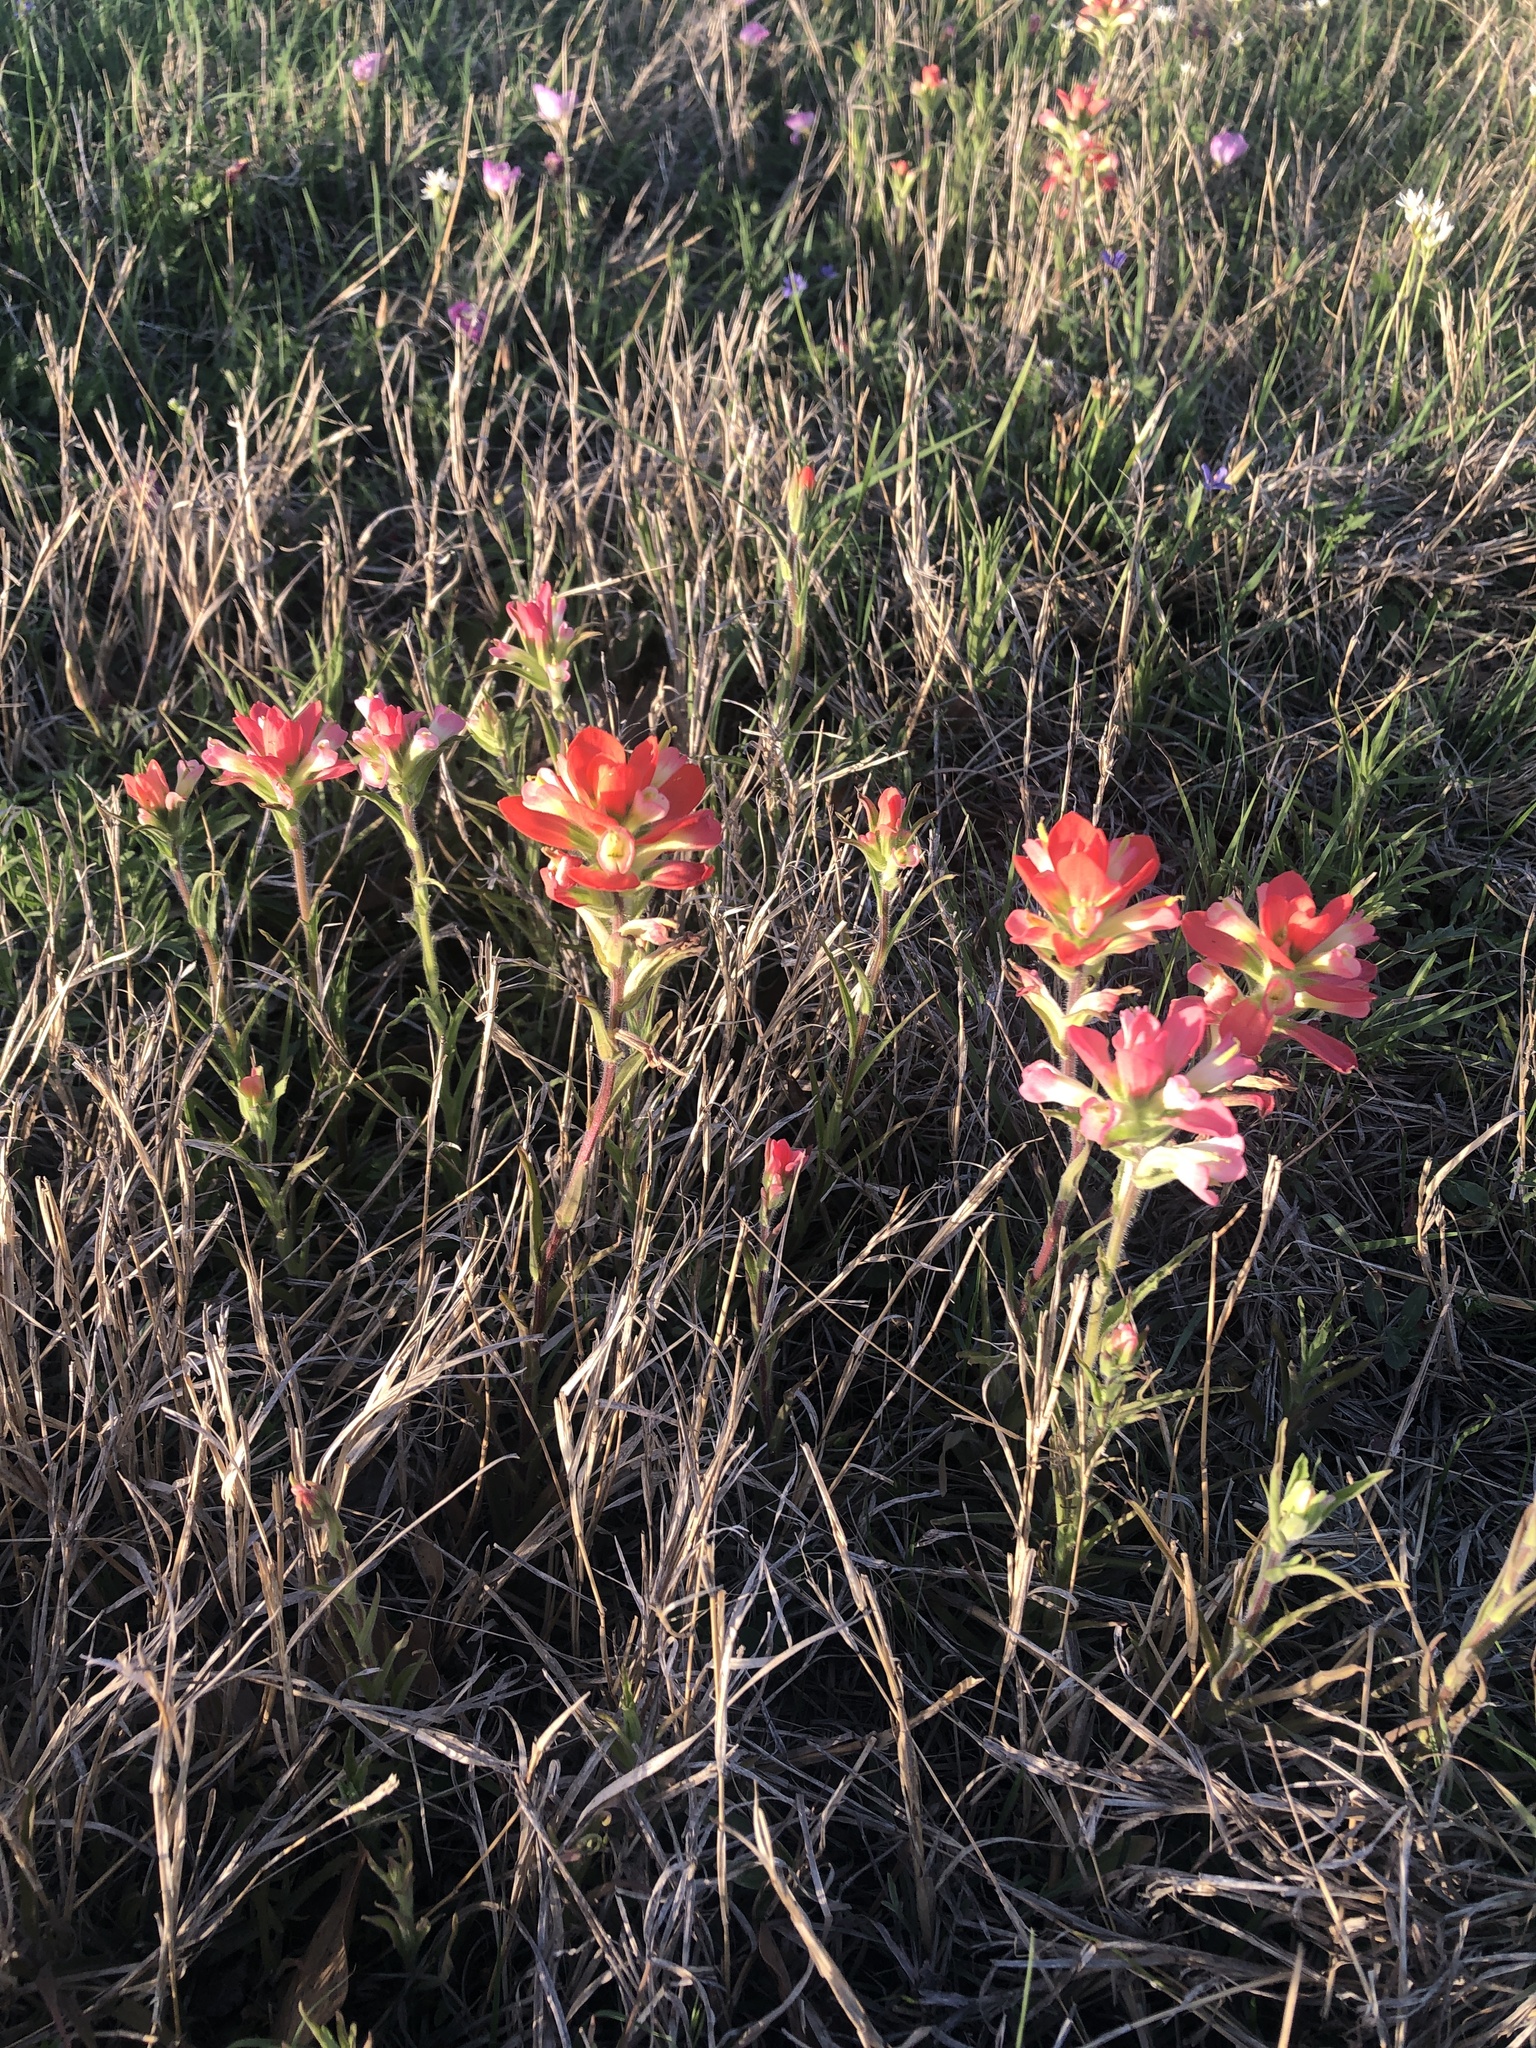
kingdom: Plantae
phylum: Tracheophyta
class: Magnoliopsida
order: Lamiales
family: Orobanchaceae
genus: Castilleja
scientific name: Castilleja indivisa
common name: Texas paintbrush
